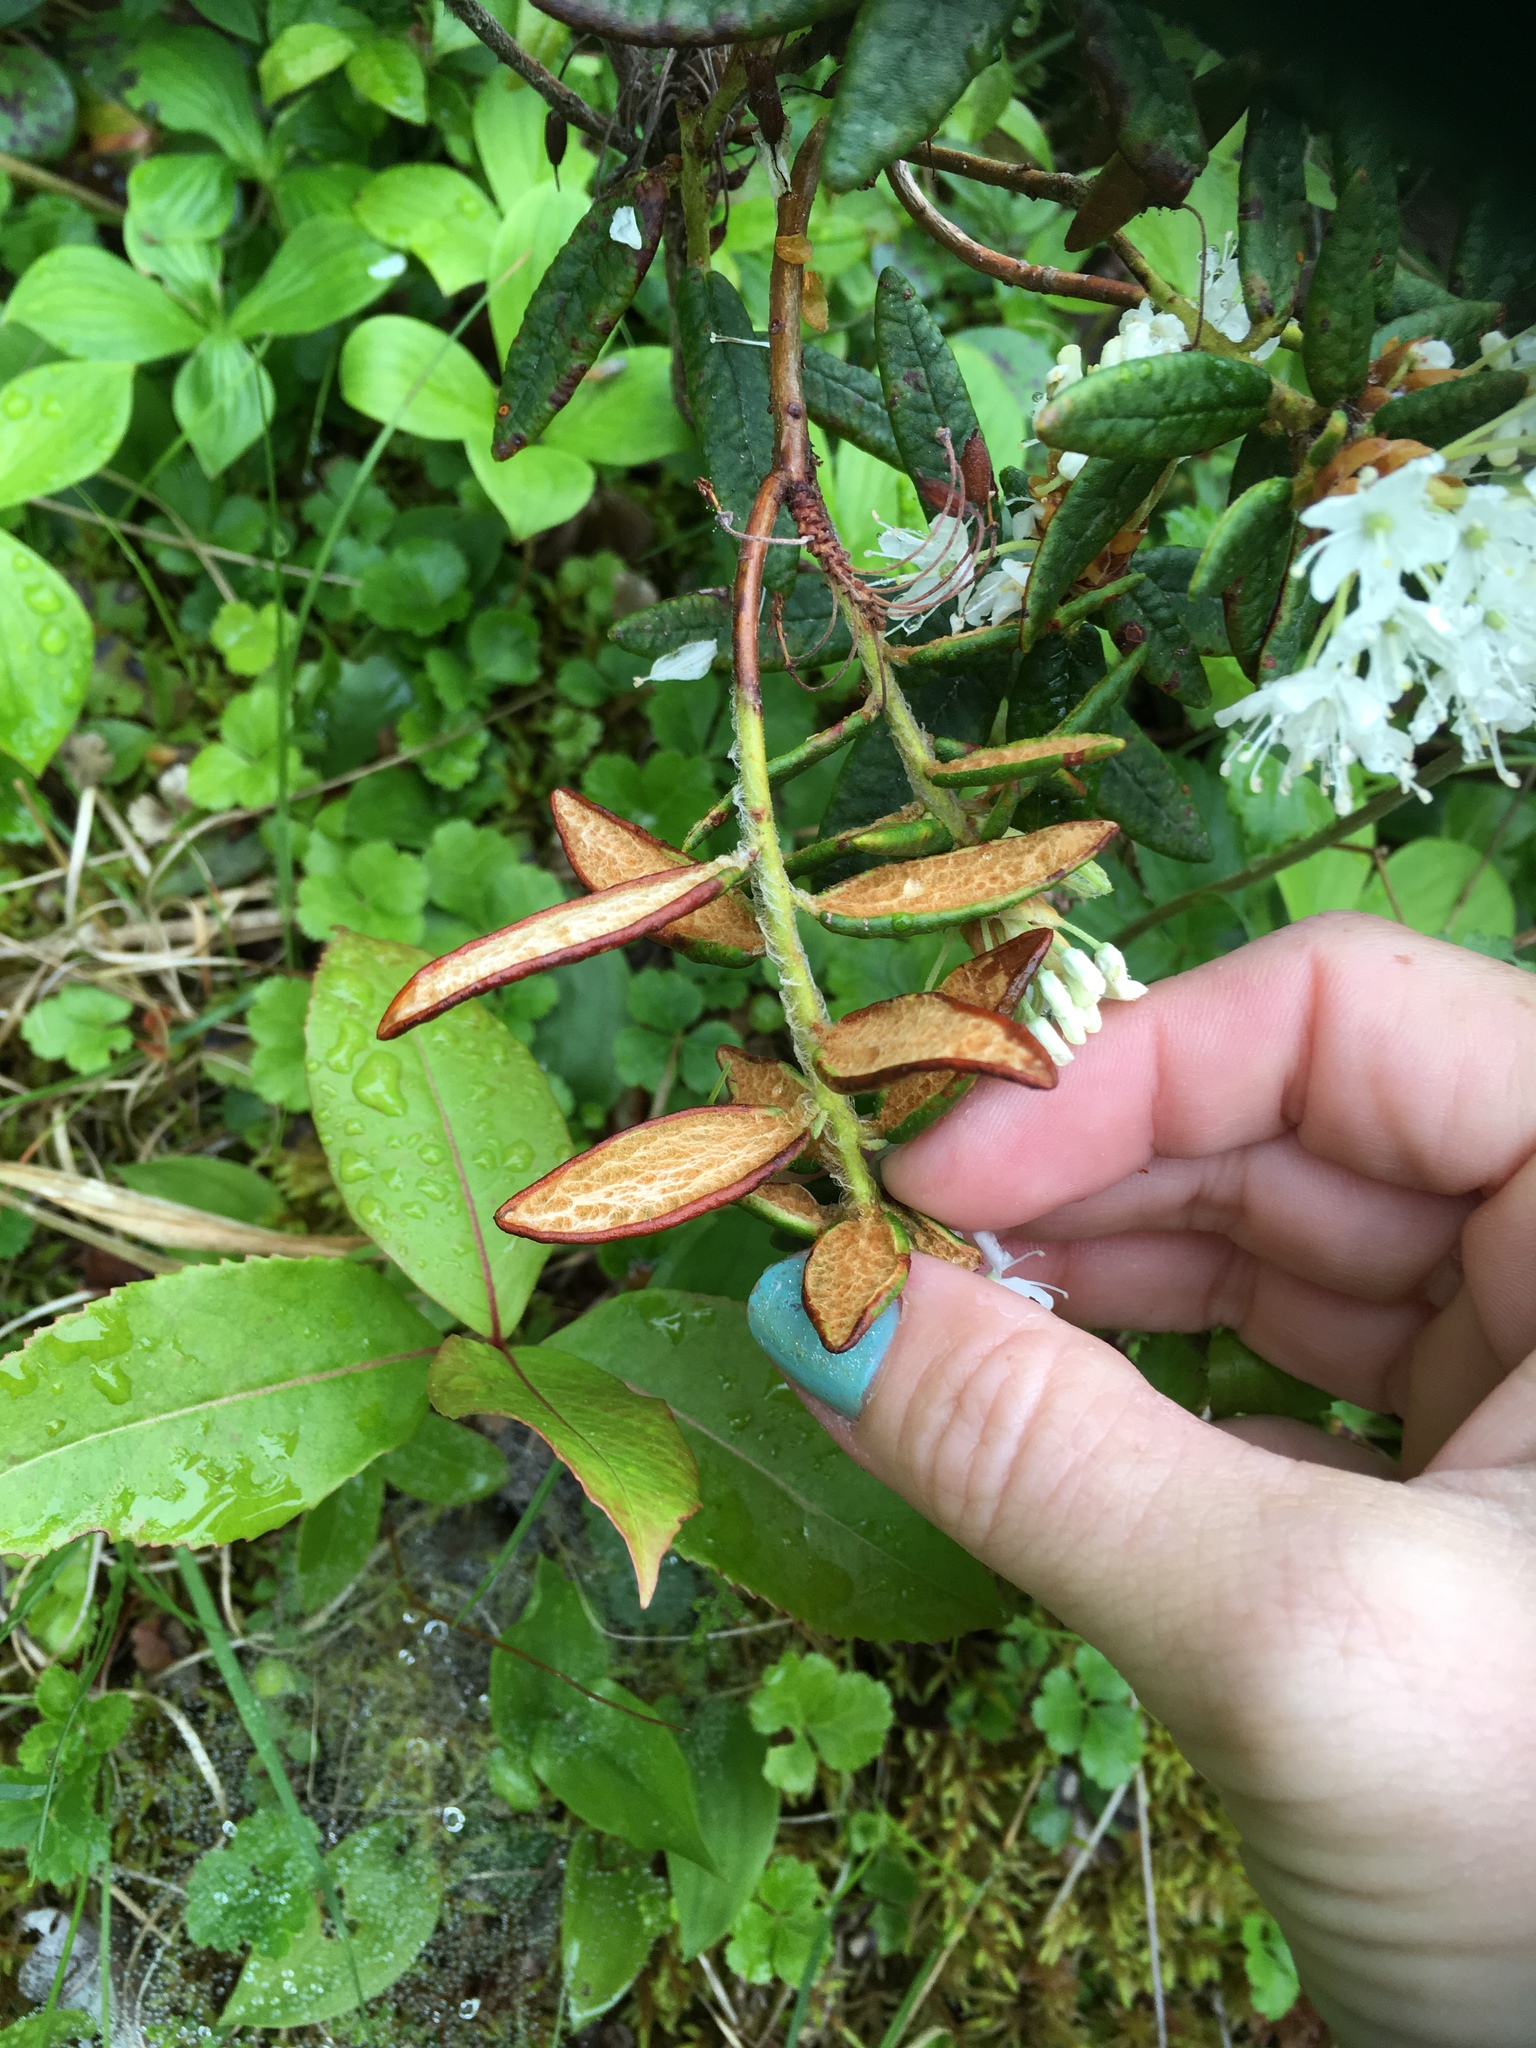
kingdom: Plantae
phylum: Tracheophyta
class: Magnoliopsida
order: Ericales
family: Ericaceae
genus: Rhododendron
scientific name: Rhododendron groenlandicum
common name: Bog labrador tea
